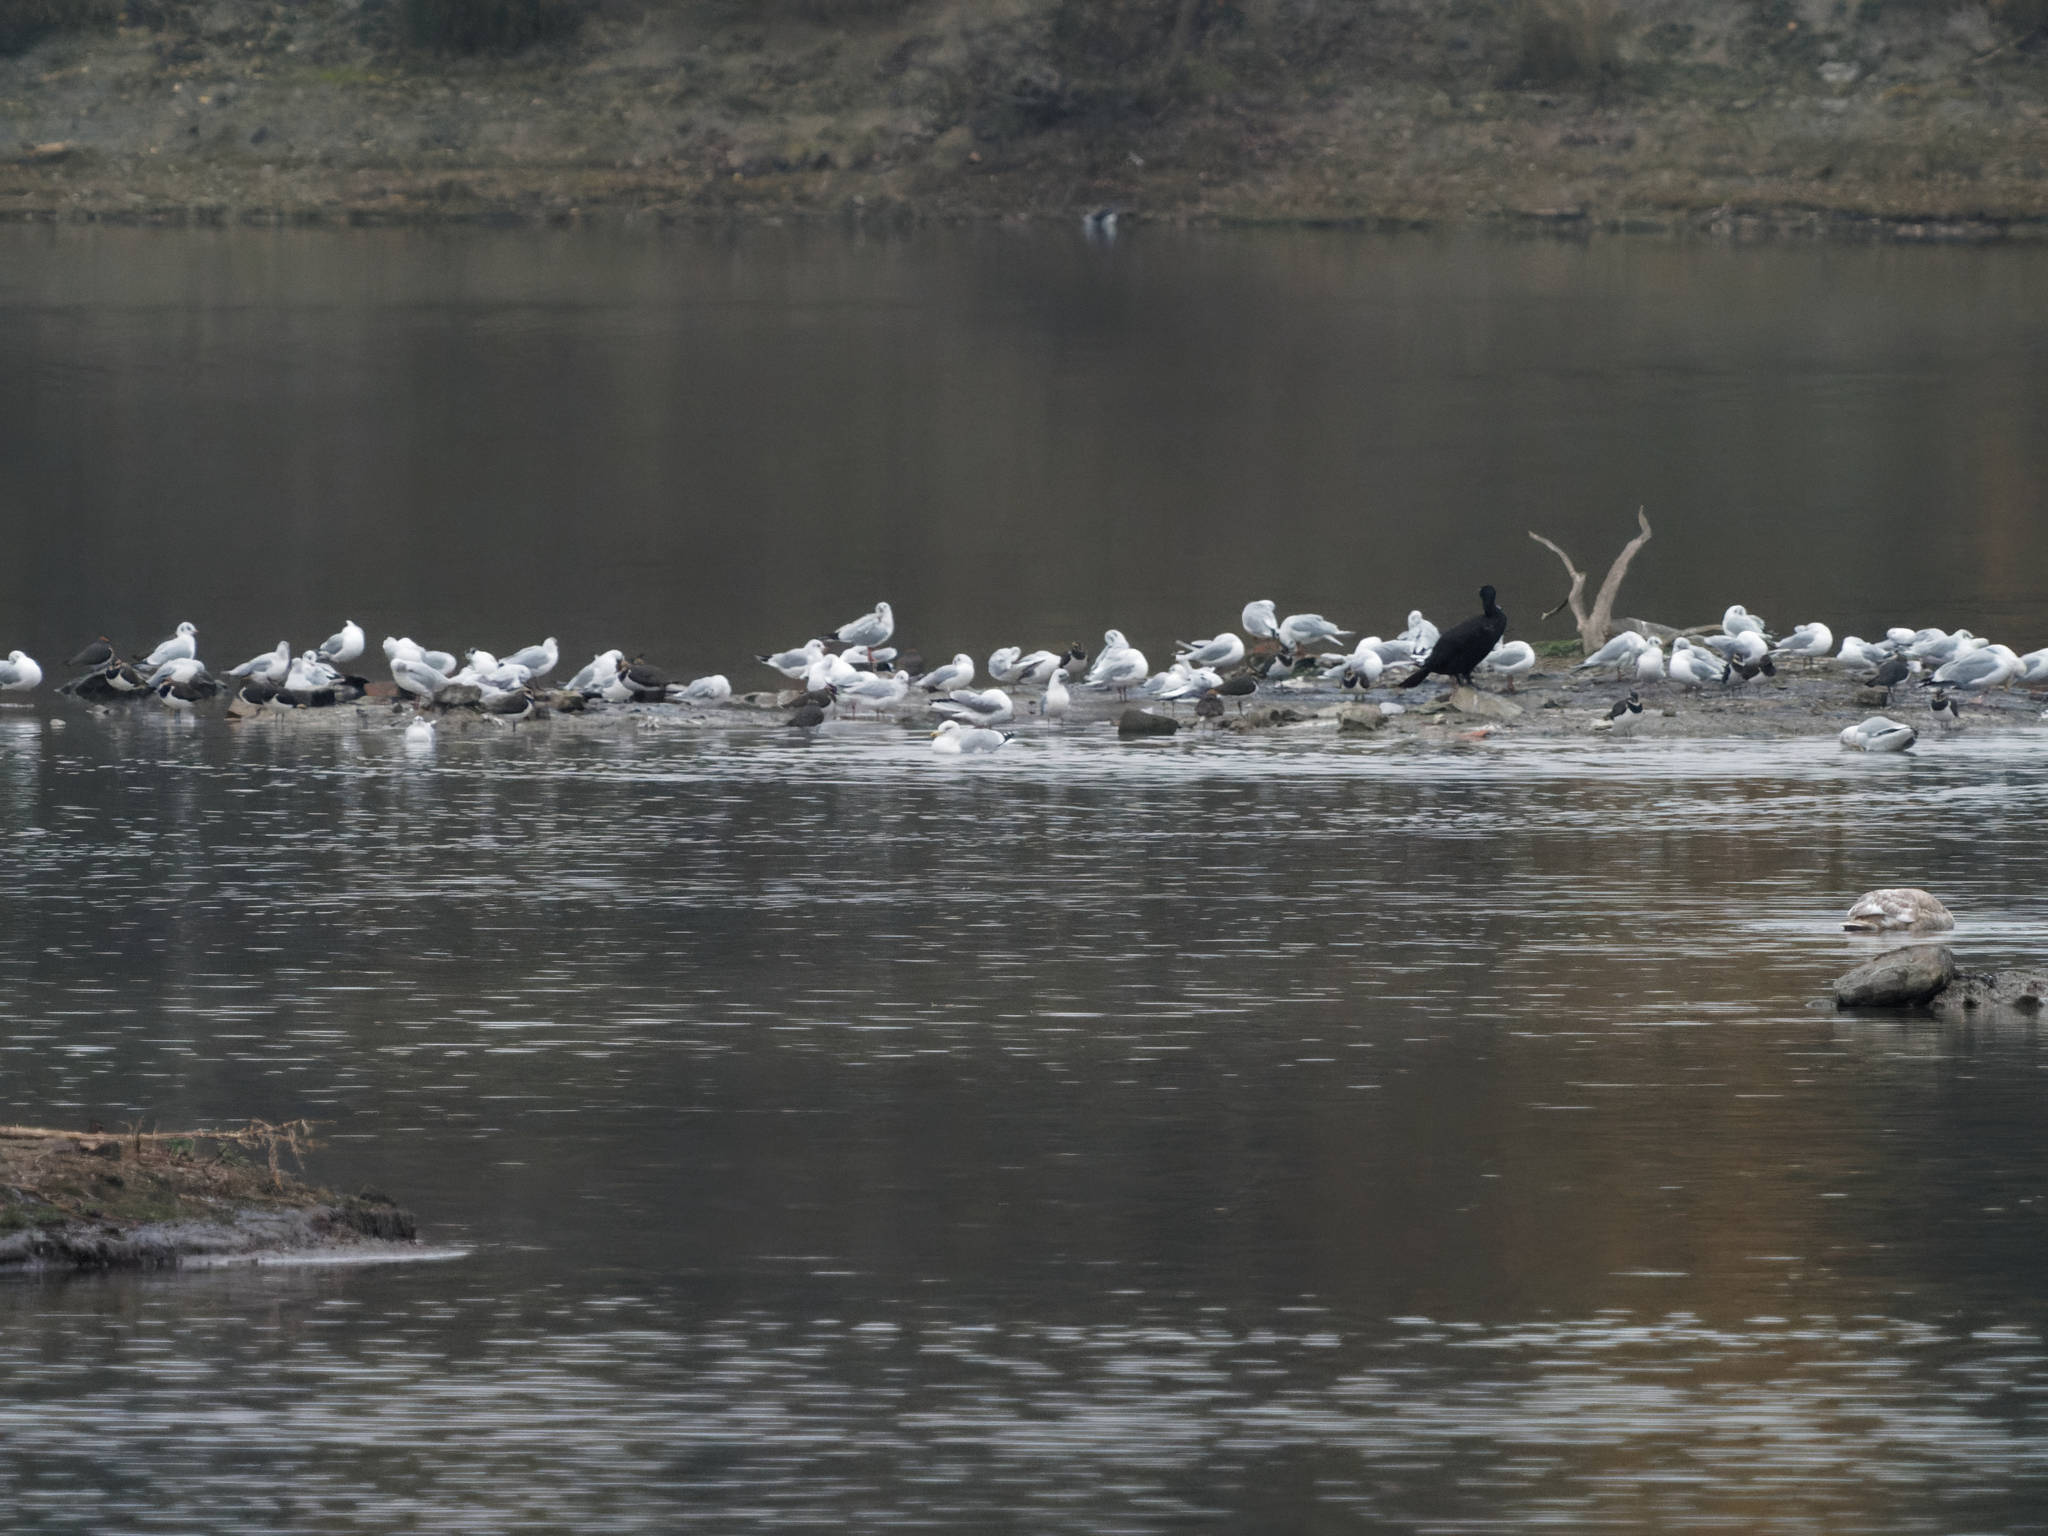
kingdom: Animalia
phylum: Chordata
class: Aves
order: Charadriiformes
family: Laridae
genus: Chroicocephalus
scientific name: Chroicocephalus ridibundus
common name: Black-headed gull
